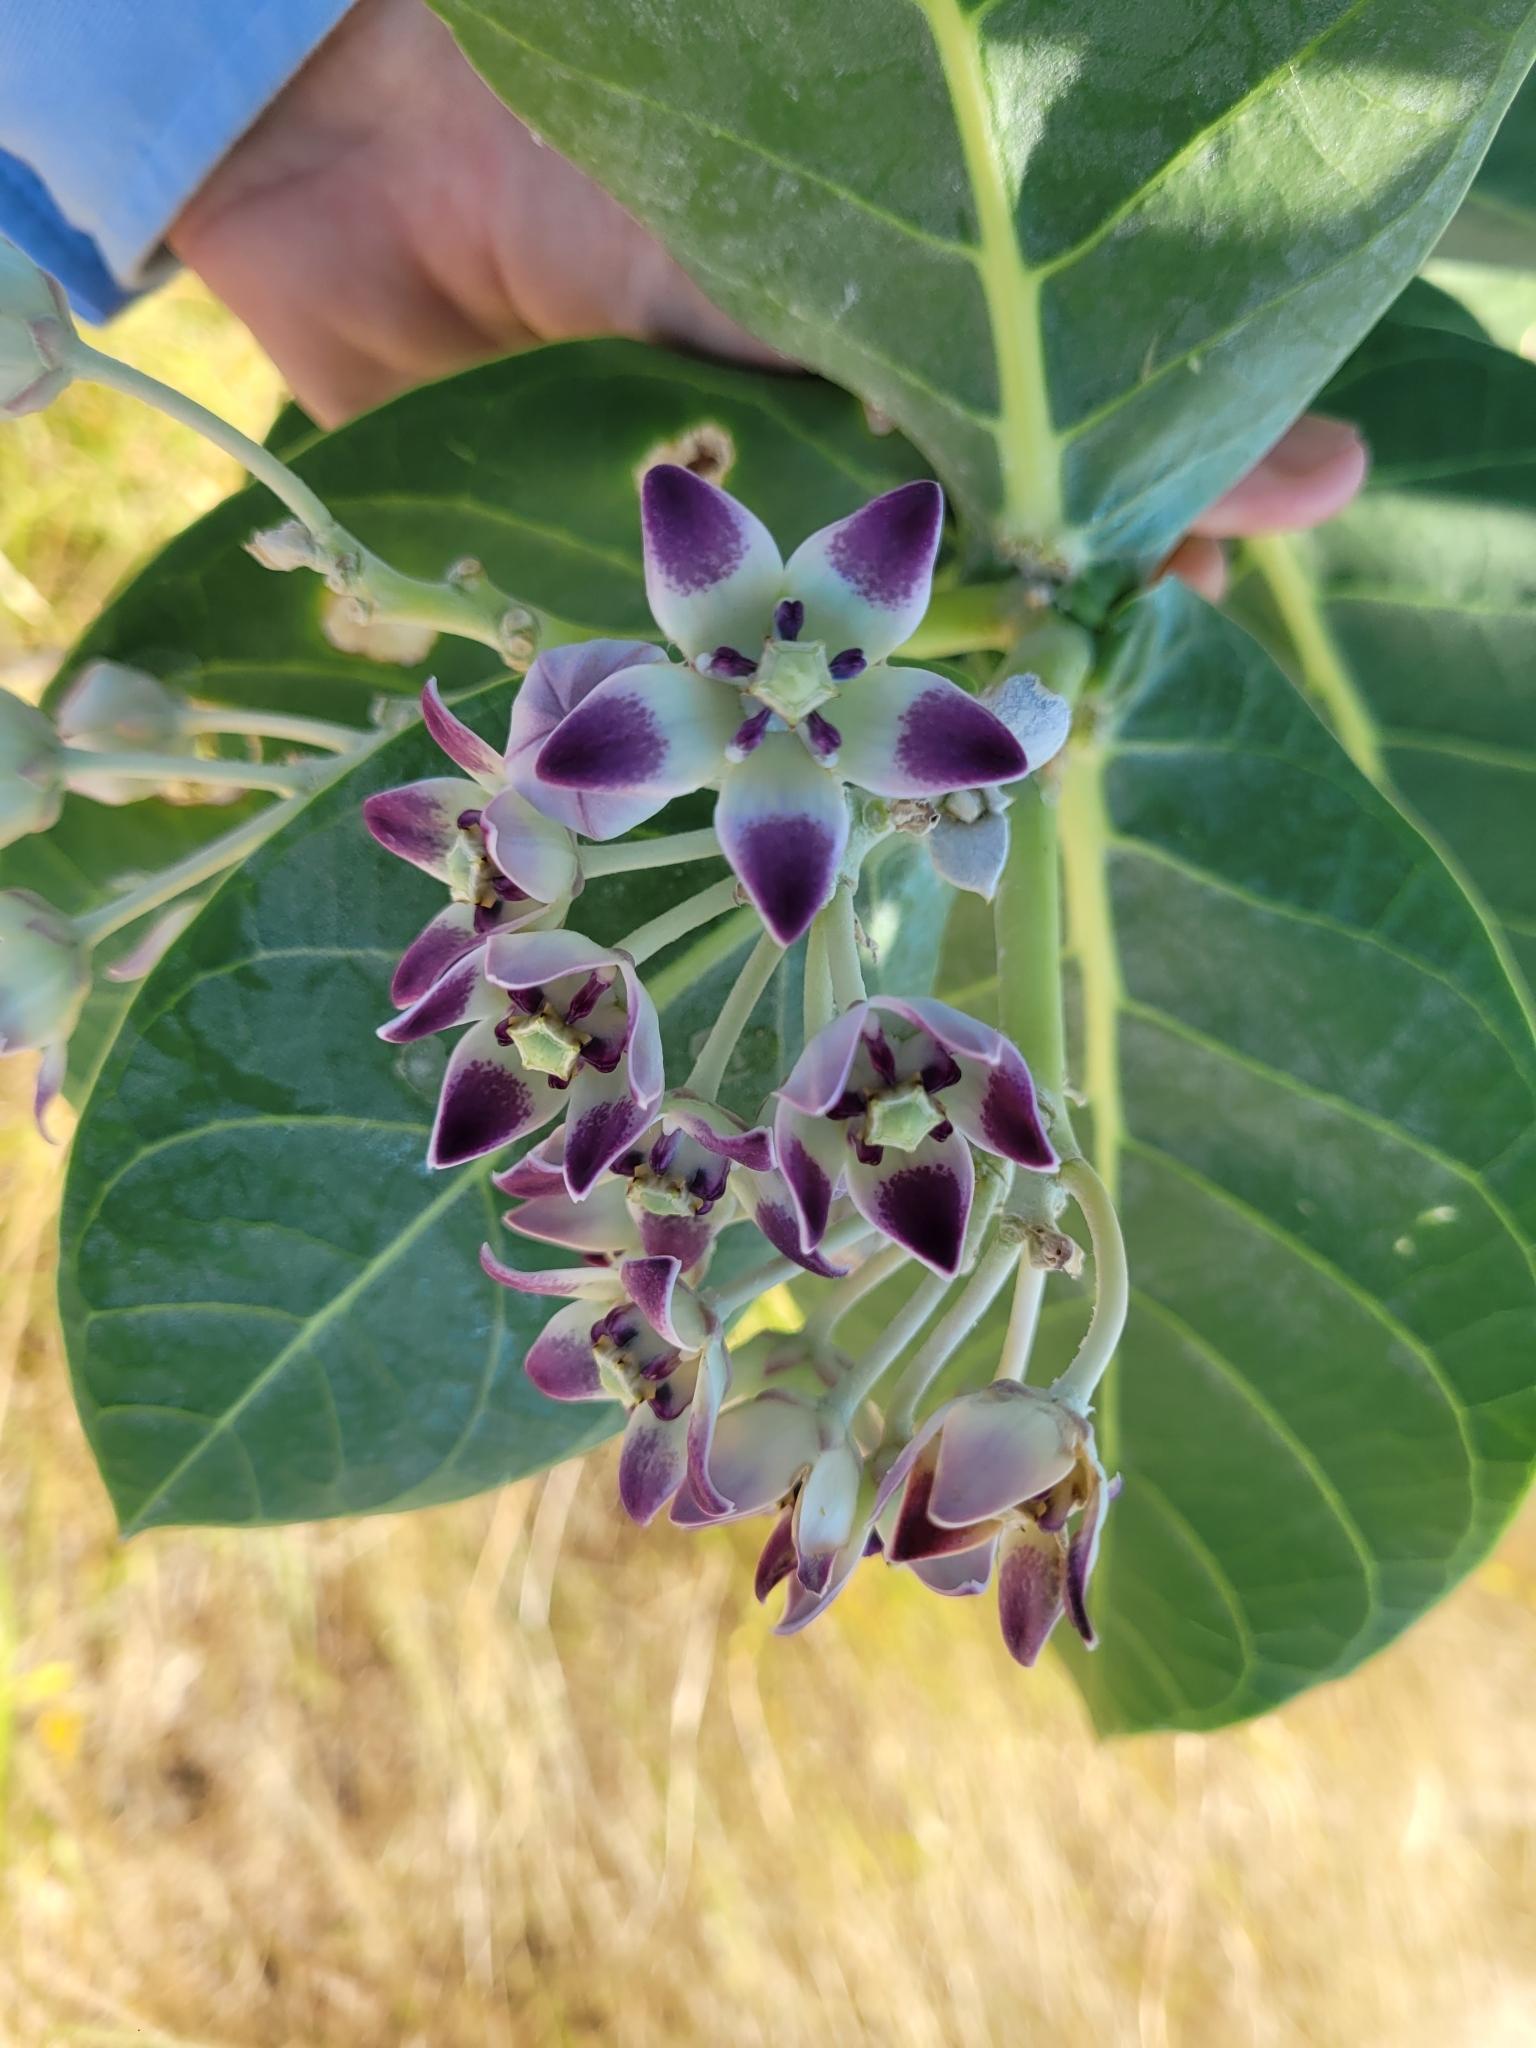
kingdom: Plantae
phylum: Tracheophyta
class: Magnoliopsida
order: Gentianales
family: Apocynaceae
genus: Calotropis
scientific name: Calotropis procera
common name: Roostertree
